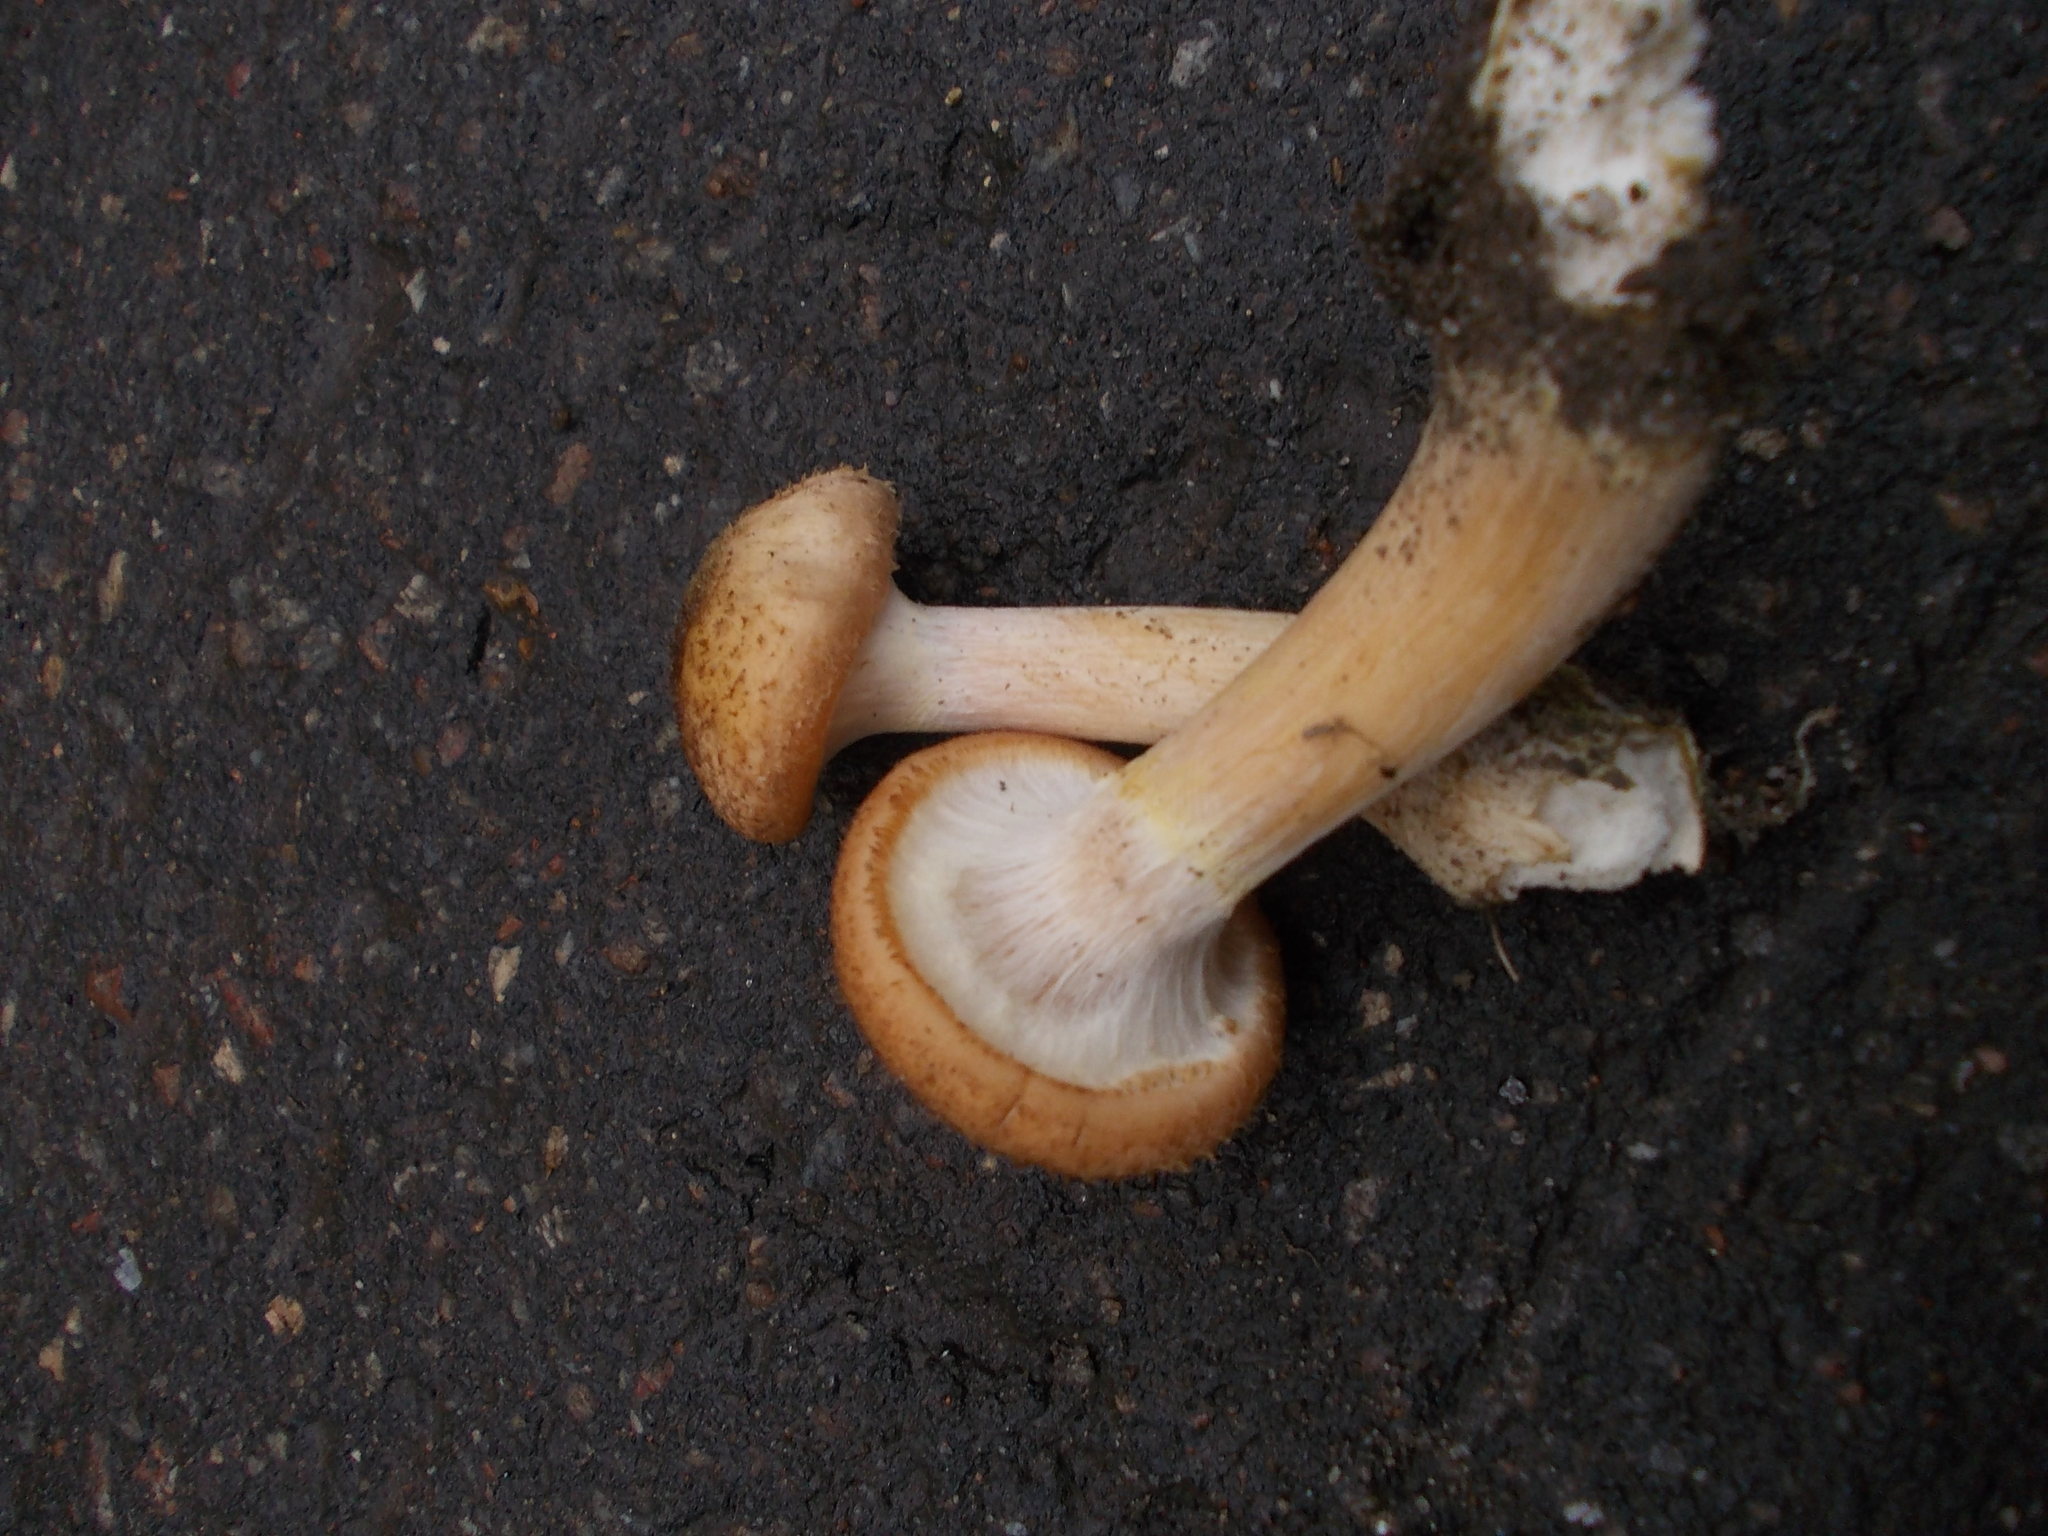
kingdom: Fungi
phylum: Basidiomycota
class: Agaricomycetes
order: Agaricales
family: Physalacriaceae
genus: Armillaria
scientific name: Armillaria borealis
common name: Northern honey fungus
